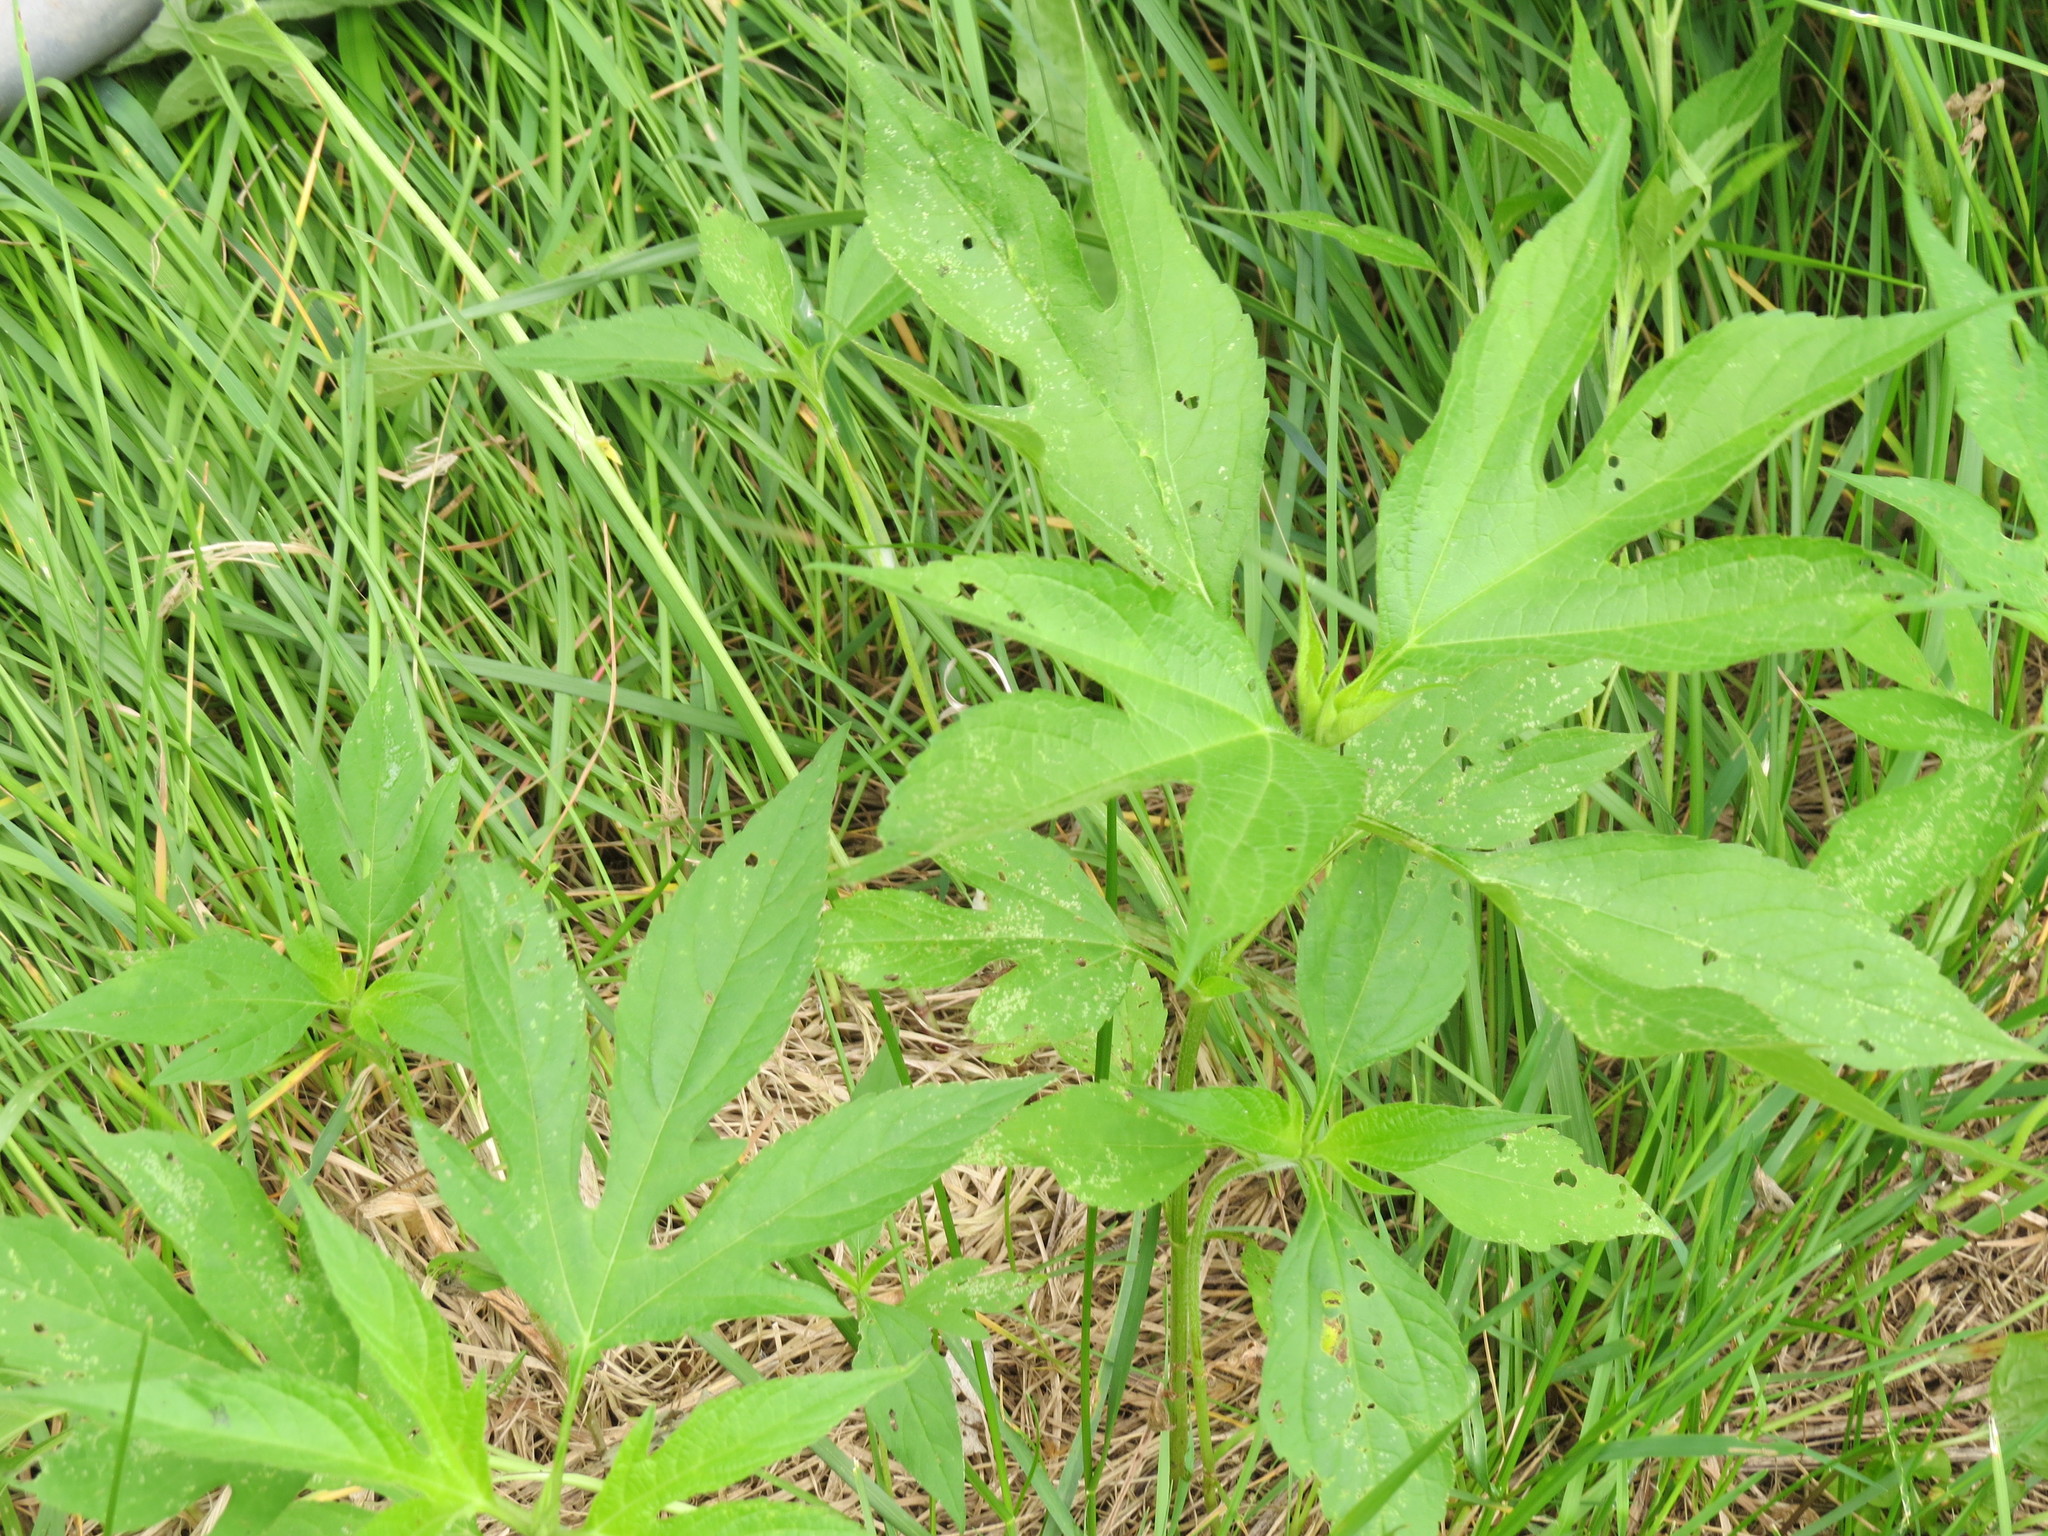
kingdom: Plantae
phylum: Tracheophyta
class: Magnoliopsida
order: Asterales
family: Asteraceae
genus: Ambrosia
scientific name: Ambrosia trifida
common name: Giant ragweed
